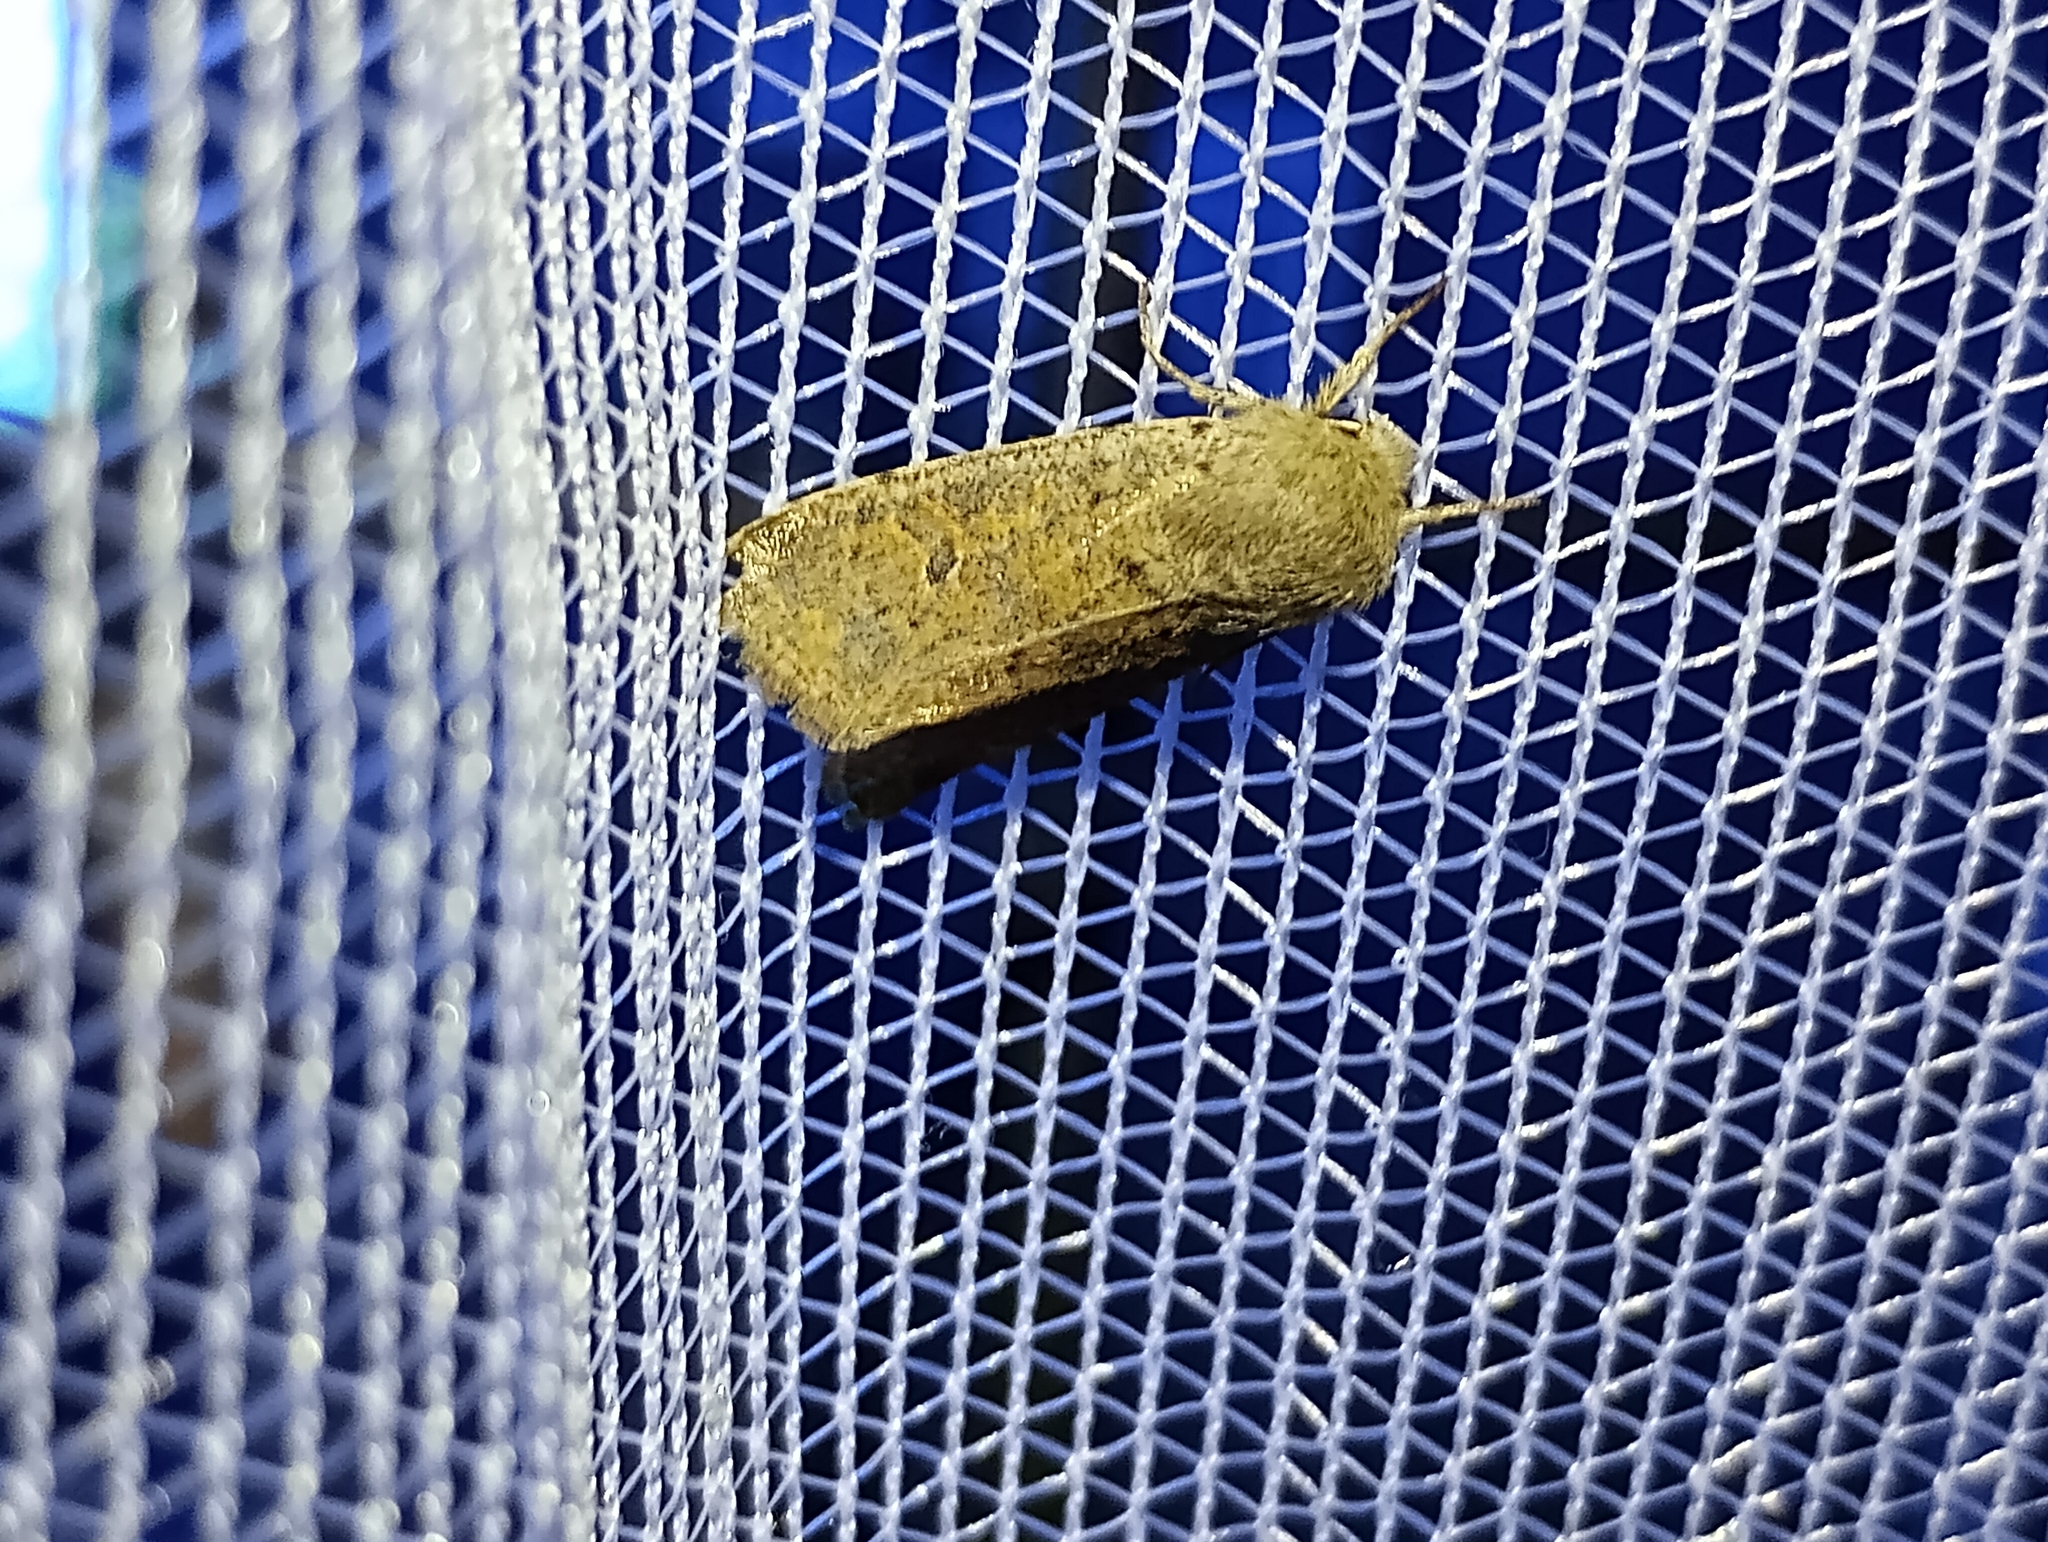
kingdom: Animalia
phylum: Arthropoda
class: Insecta
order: Lepidoptera
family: Noctuidae
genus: Orthosia
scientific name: Orthosia cruda
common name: Small quaker
